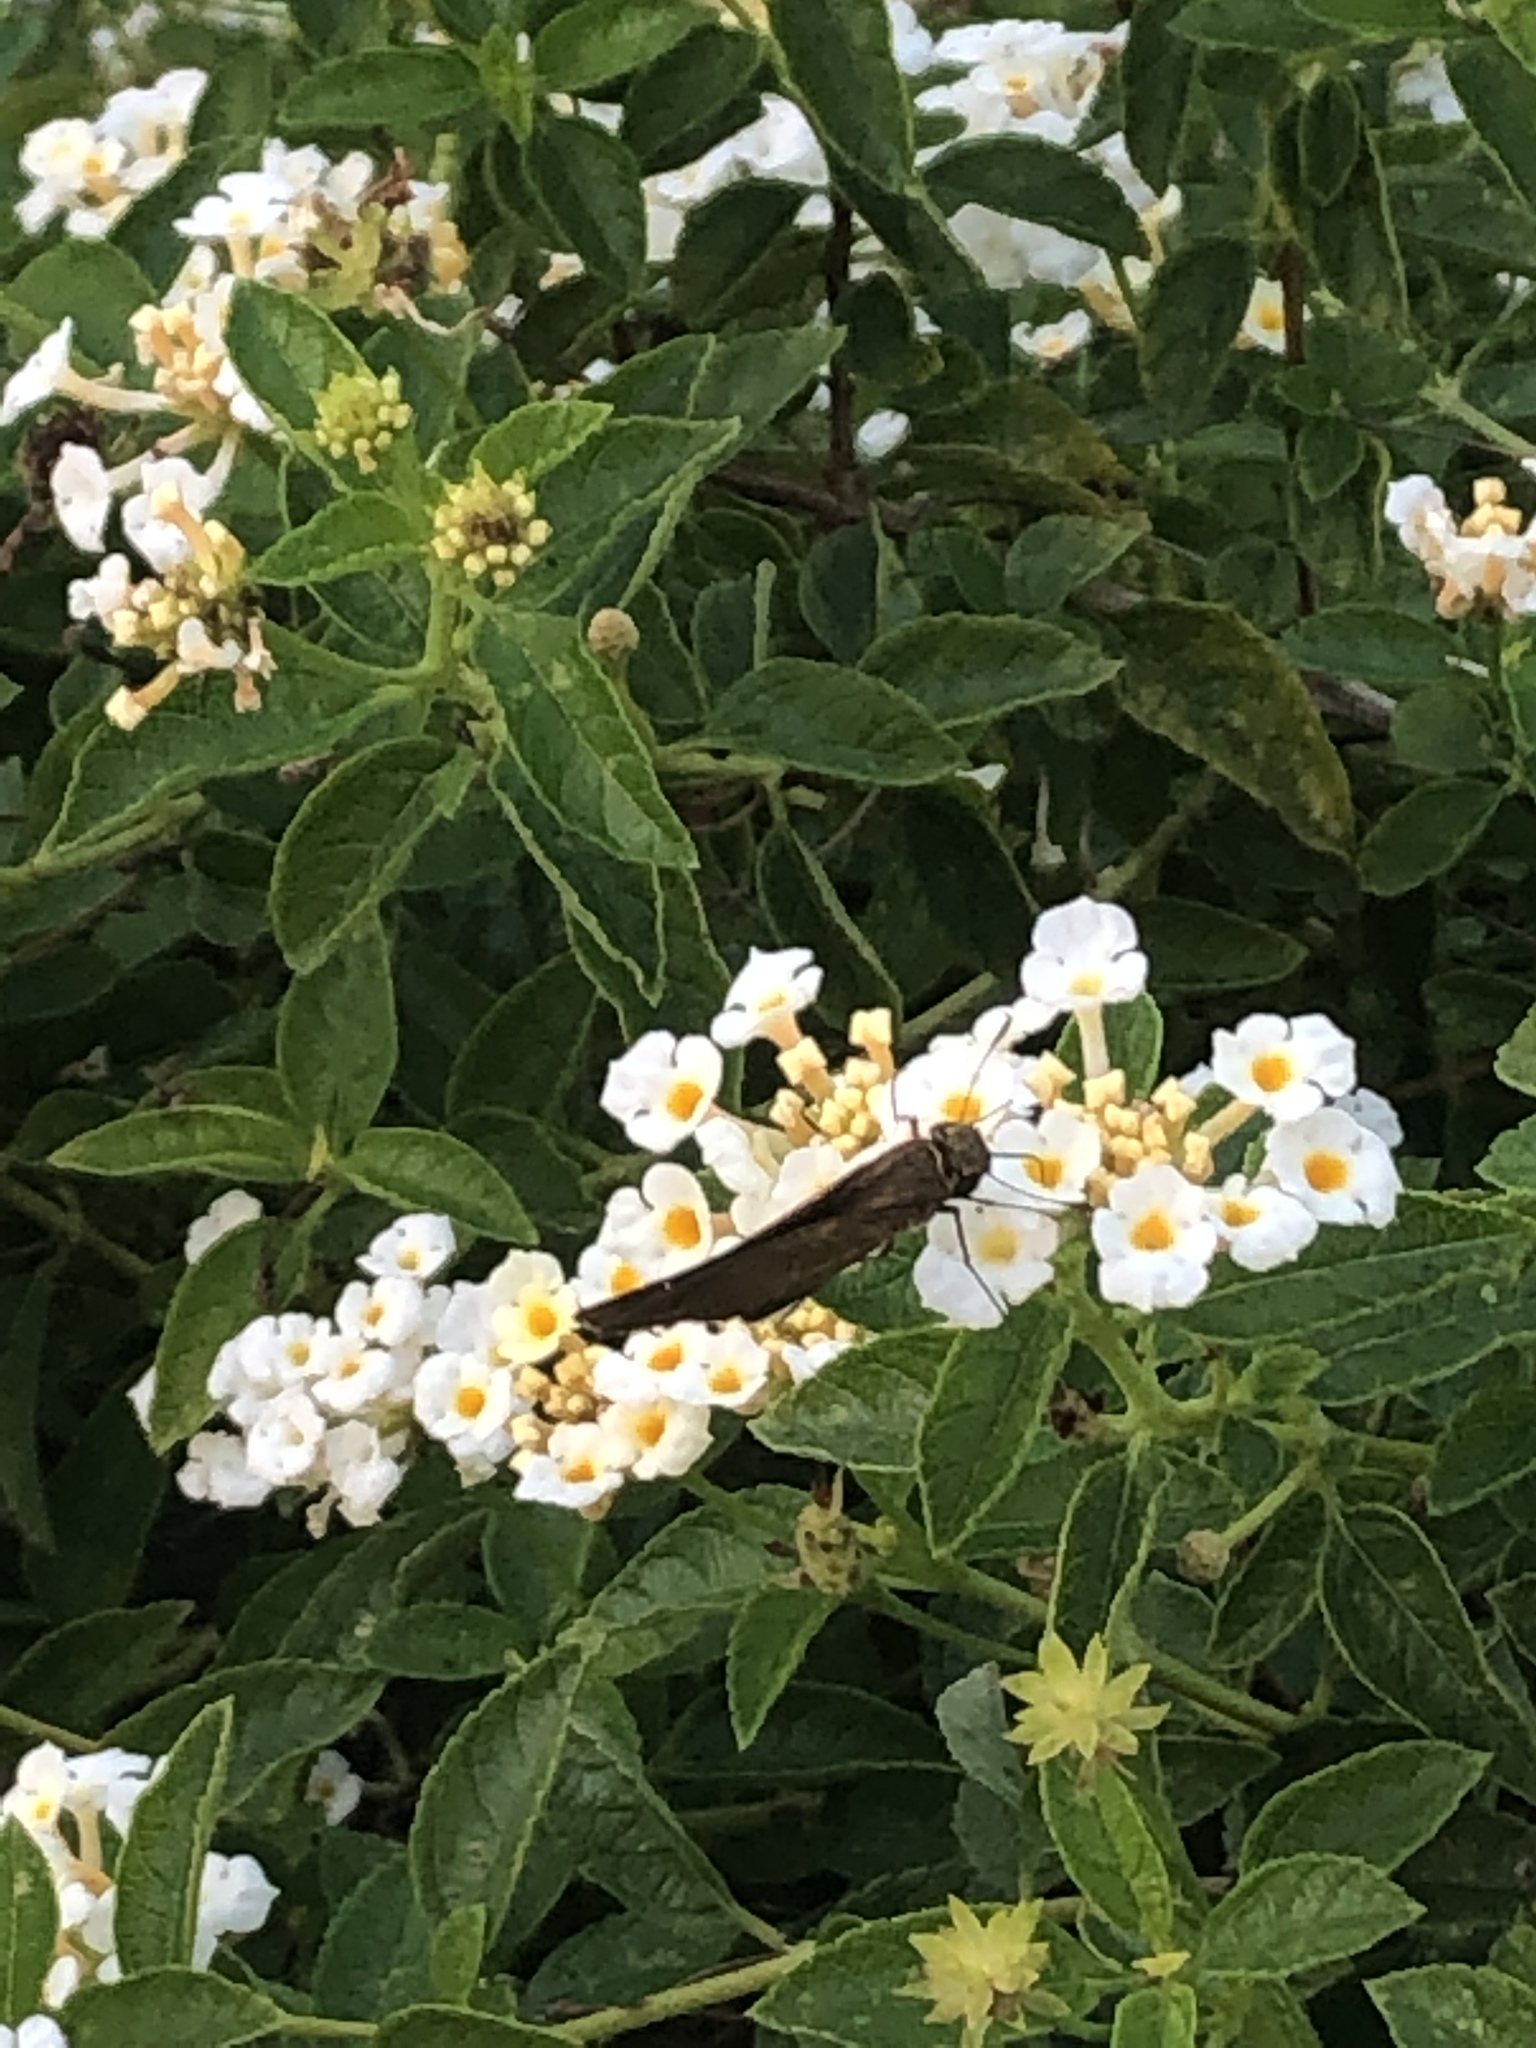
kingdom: Animalia
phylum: Arthropoda
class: Insecta
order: Lepidoptera
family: Hesperiidae
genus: Panoquina
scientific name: Panoquina ocola
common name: Ocola skipper
